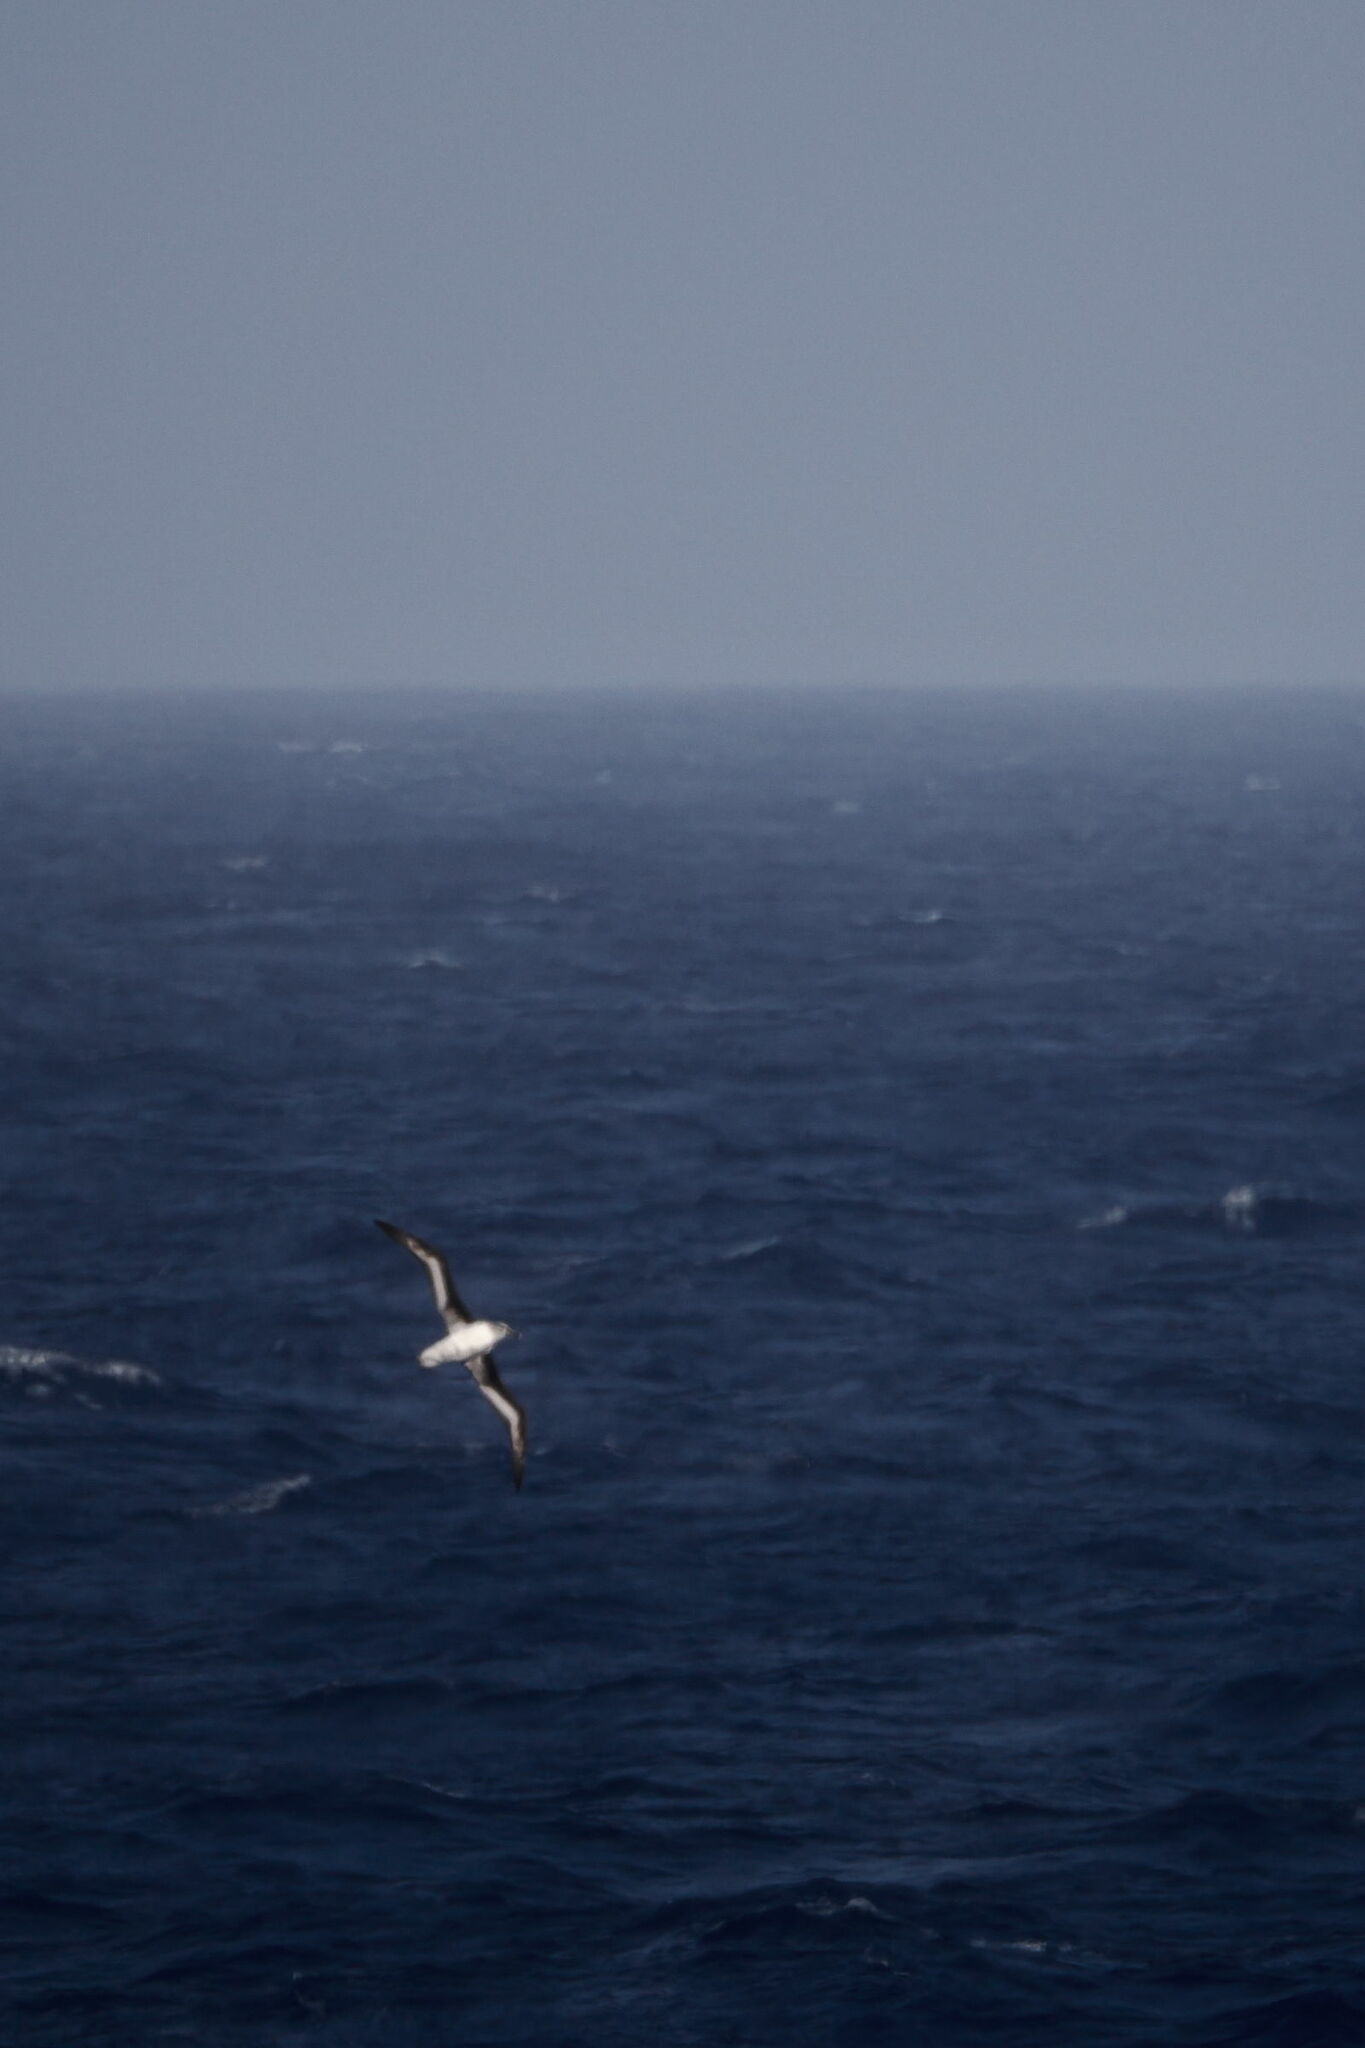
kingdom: Animalia
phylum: Chordata
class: Aves
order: Procellariiformes
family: Diomedeidae
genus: Thalassarche
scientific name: Thalassarche chrysostoma
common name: Grey-headed albatross
